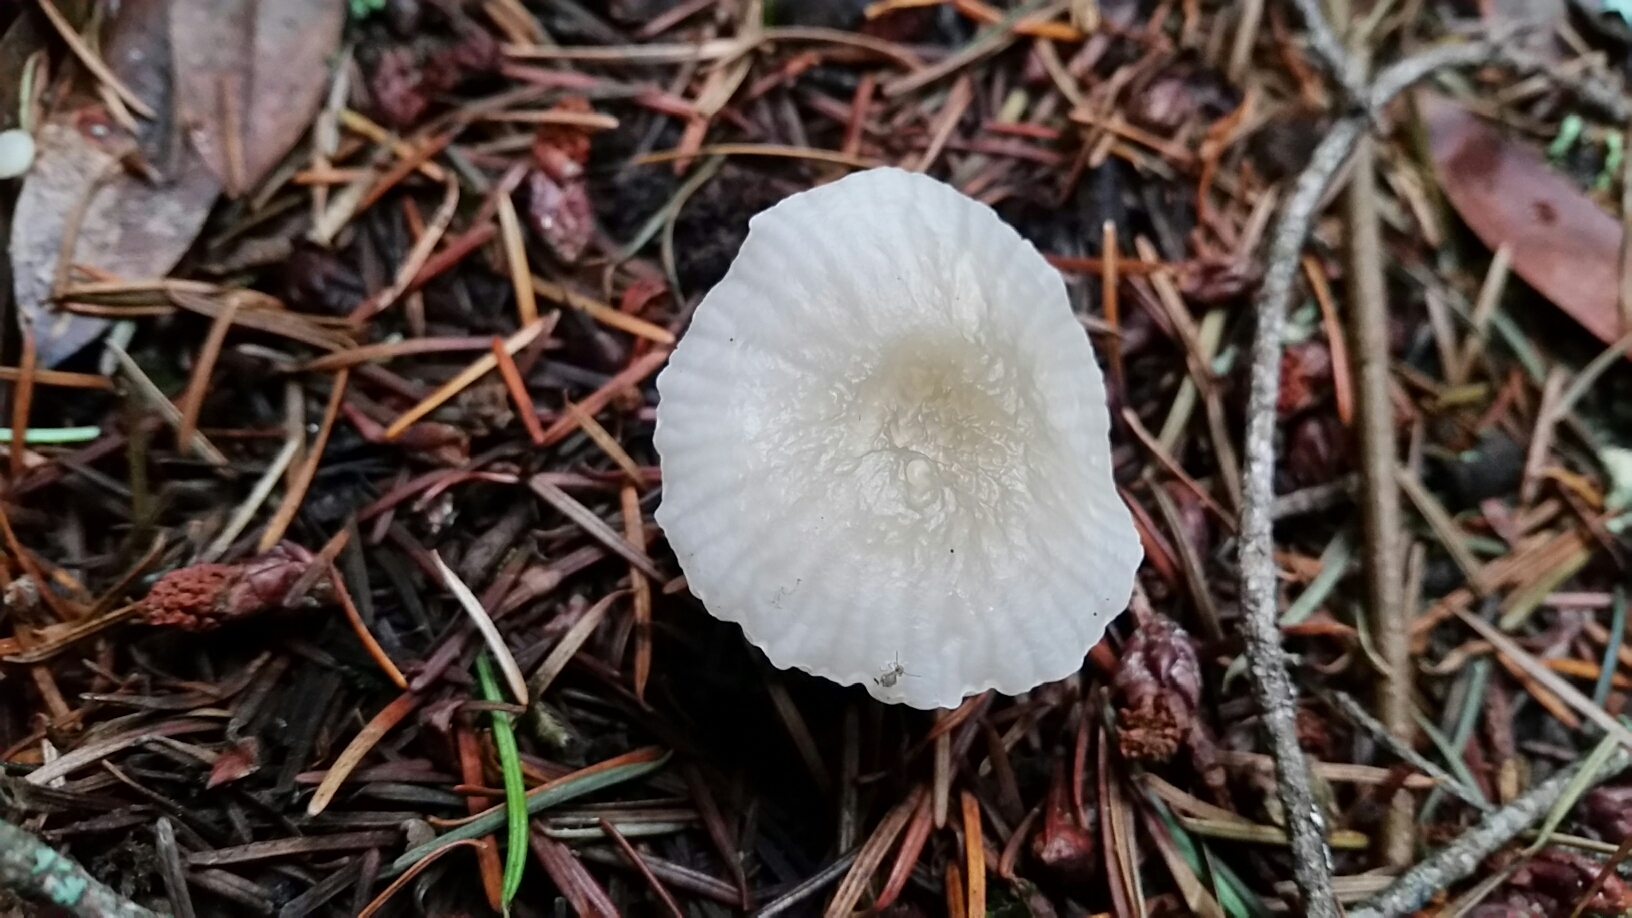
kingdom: Fungi
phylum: Basidiomycota
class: Agaricomycetes
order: Agaricales
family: Marasmiaceae
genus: Marasmius
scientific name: Marasmius calhouniae
